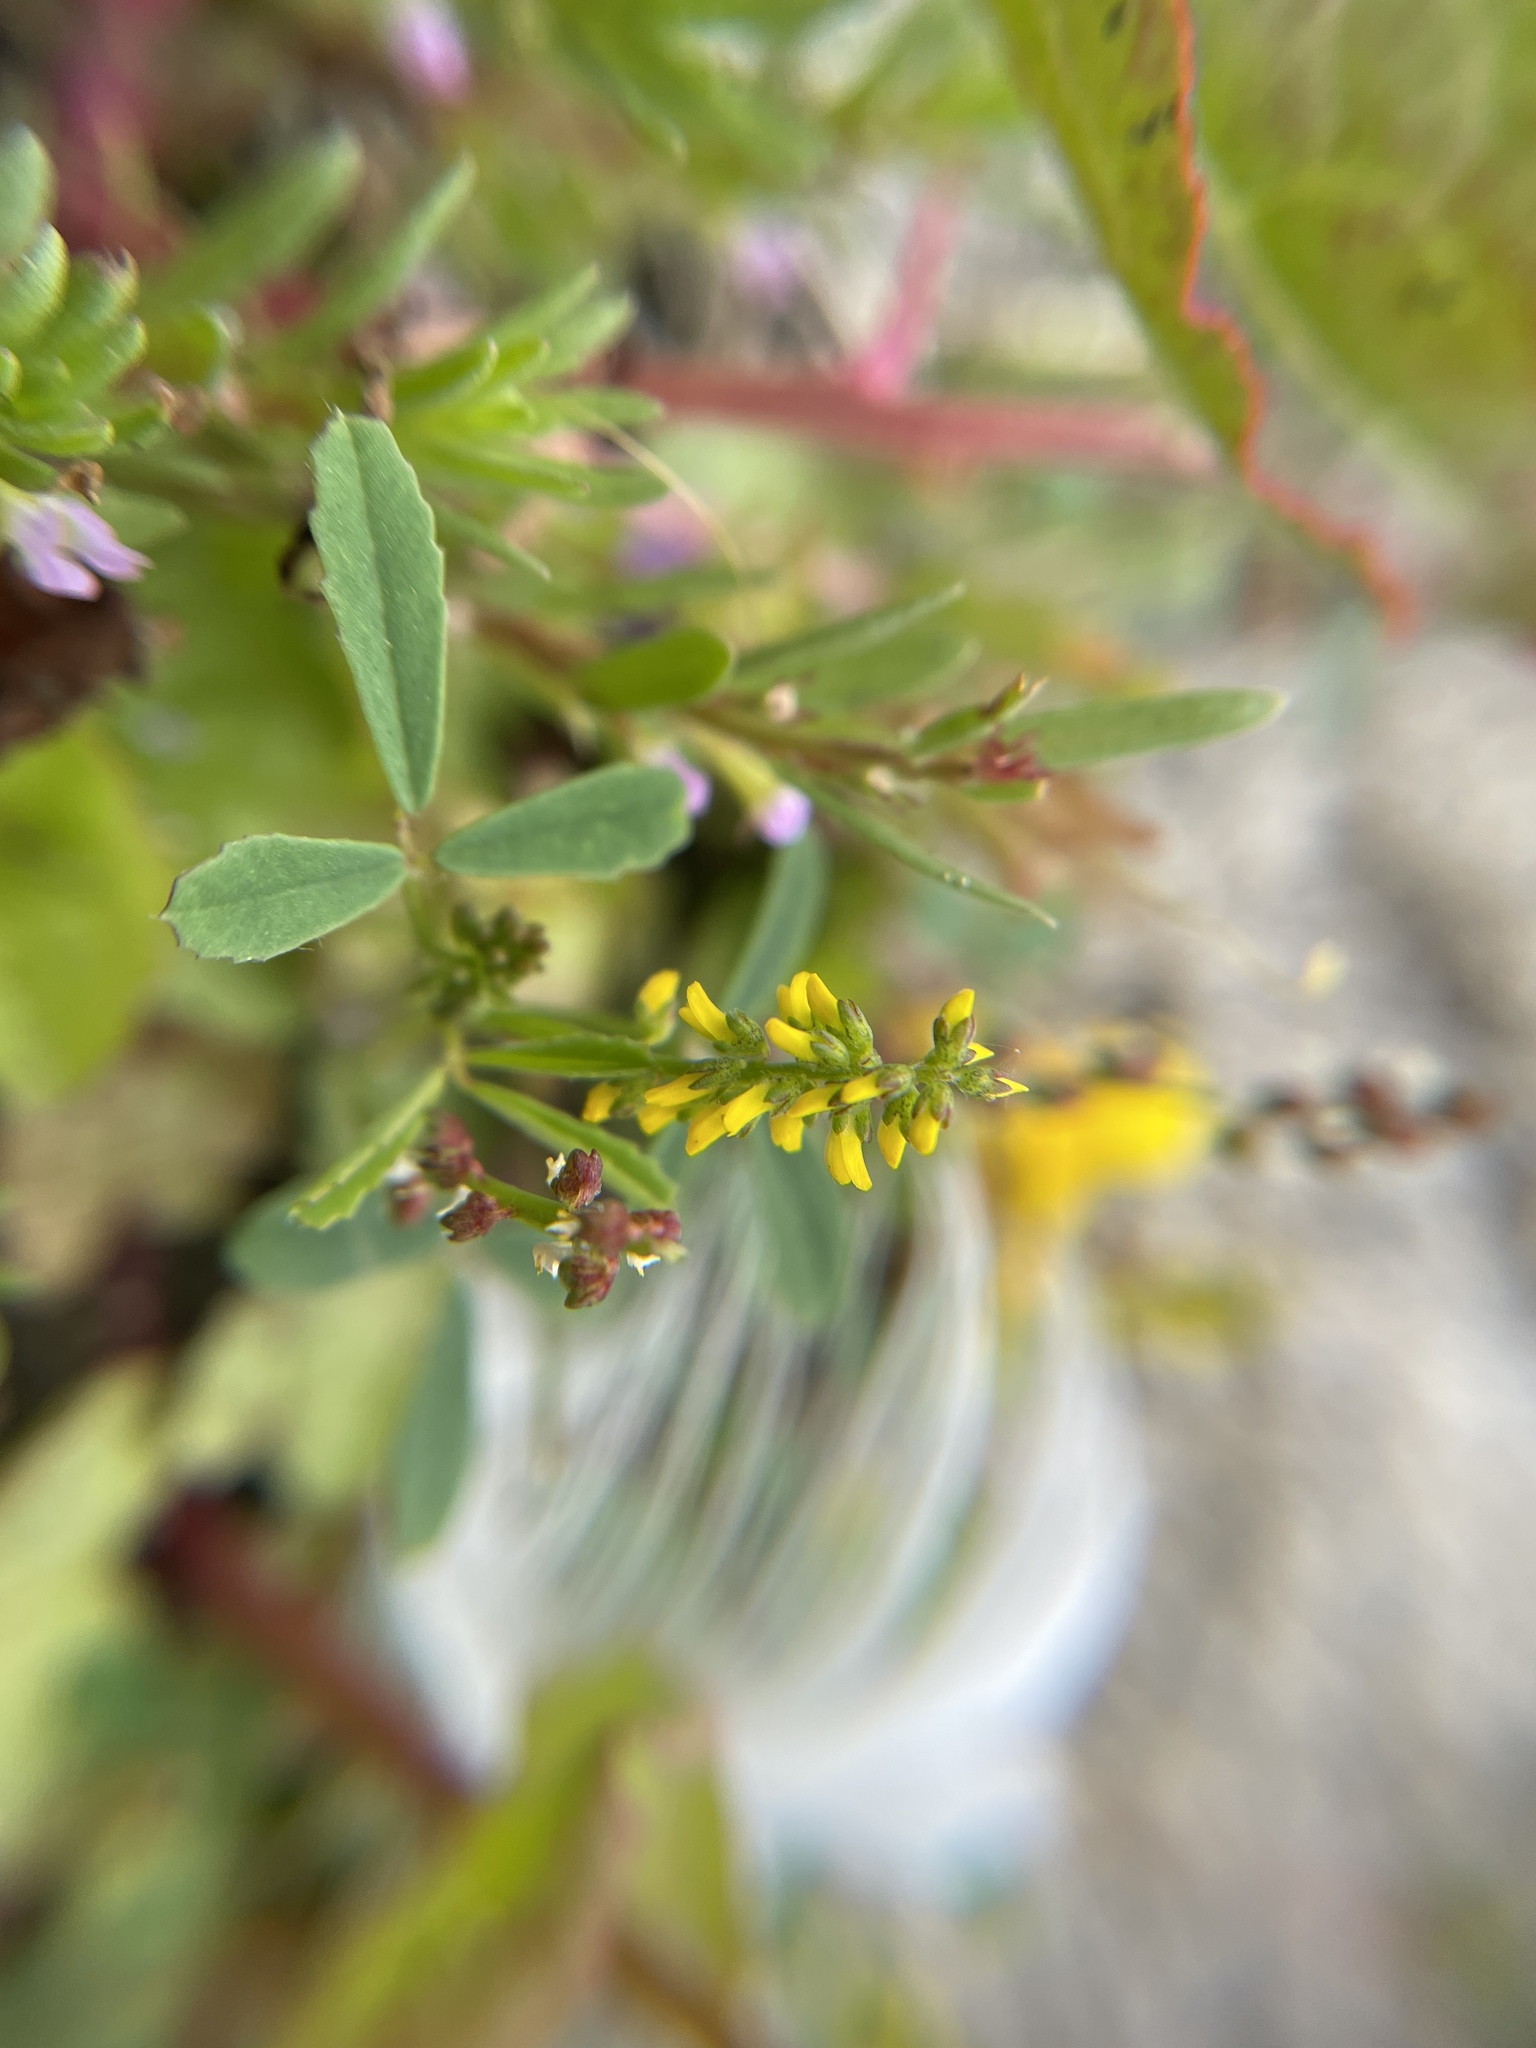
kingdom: Plantae
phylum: Tracheophyta
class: Magnoliopsida
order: Fabales
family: Fabaceae
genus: Melilotus
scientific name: Melilotus indicus
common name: Small melilot
